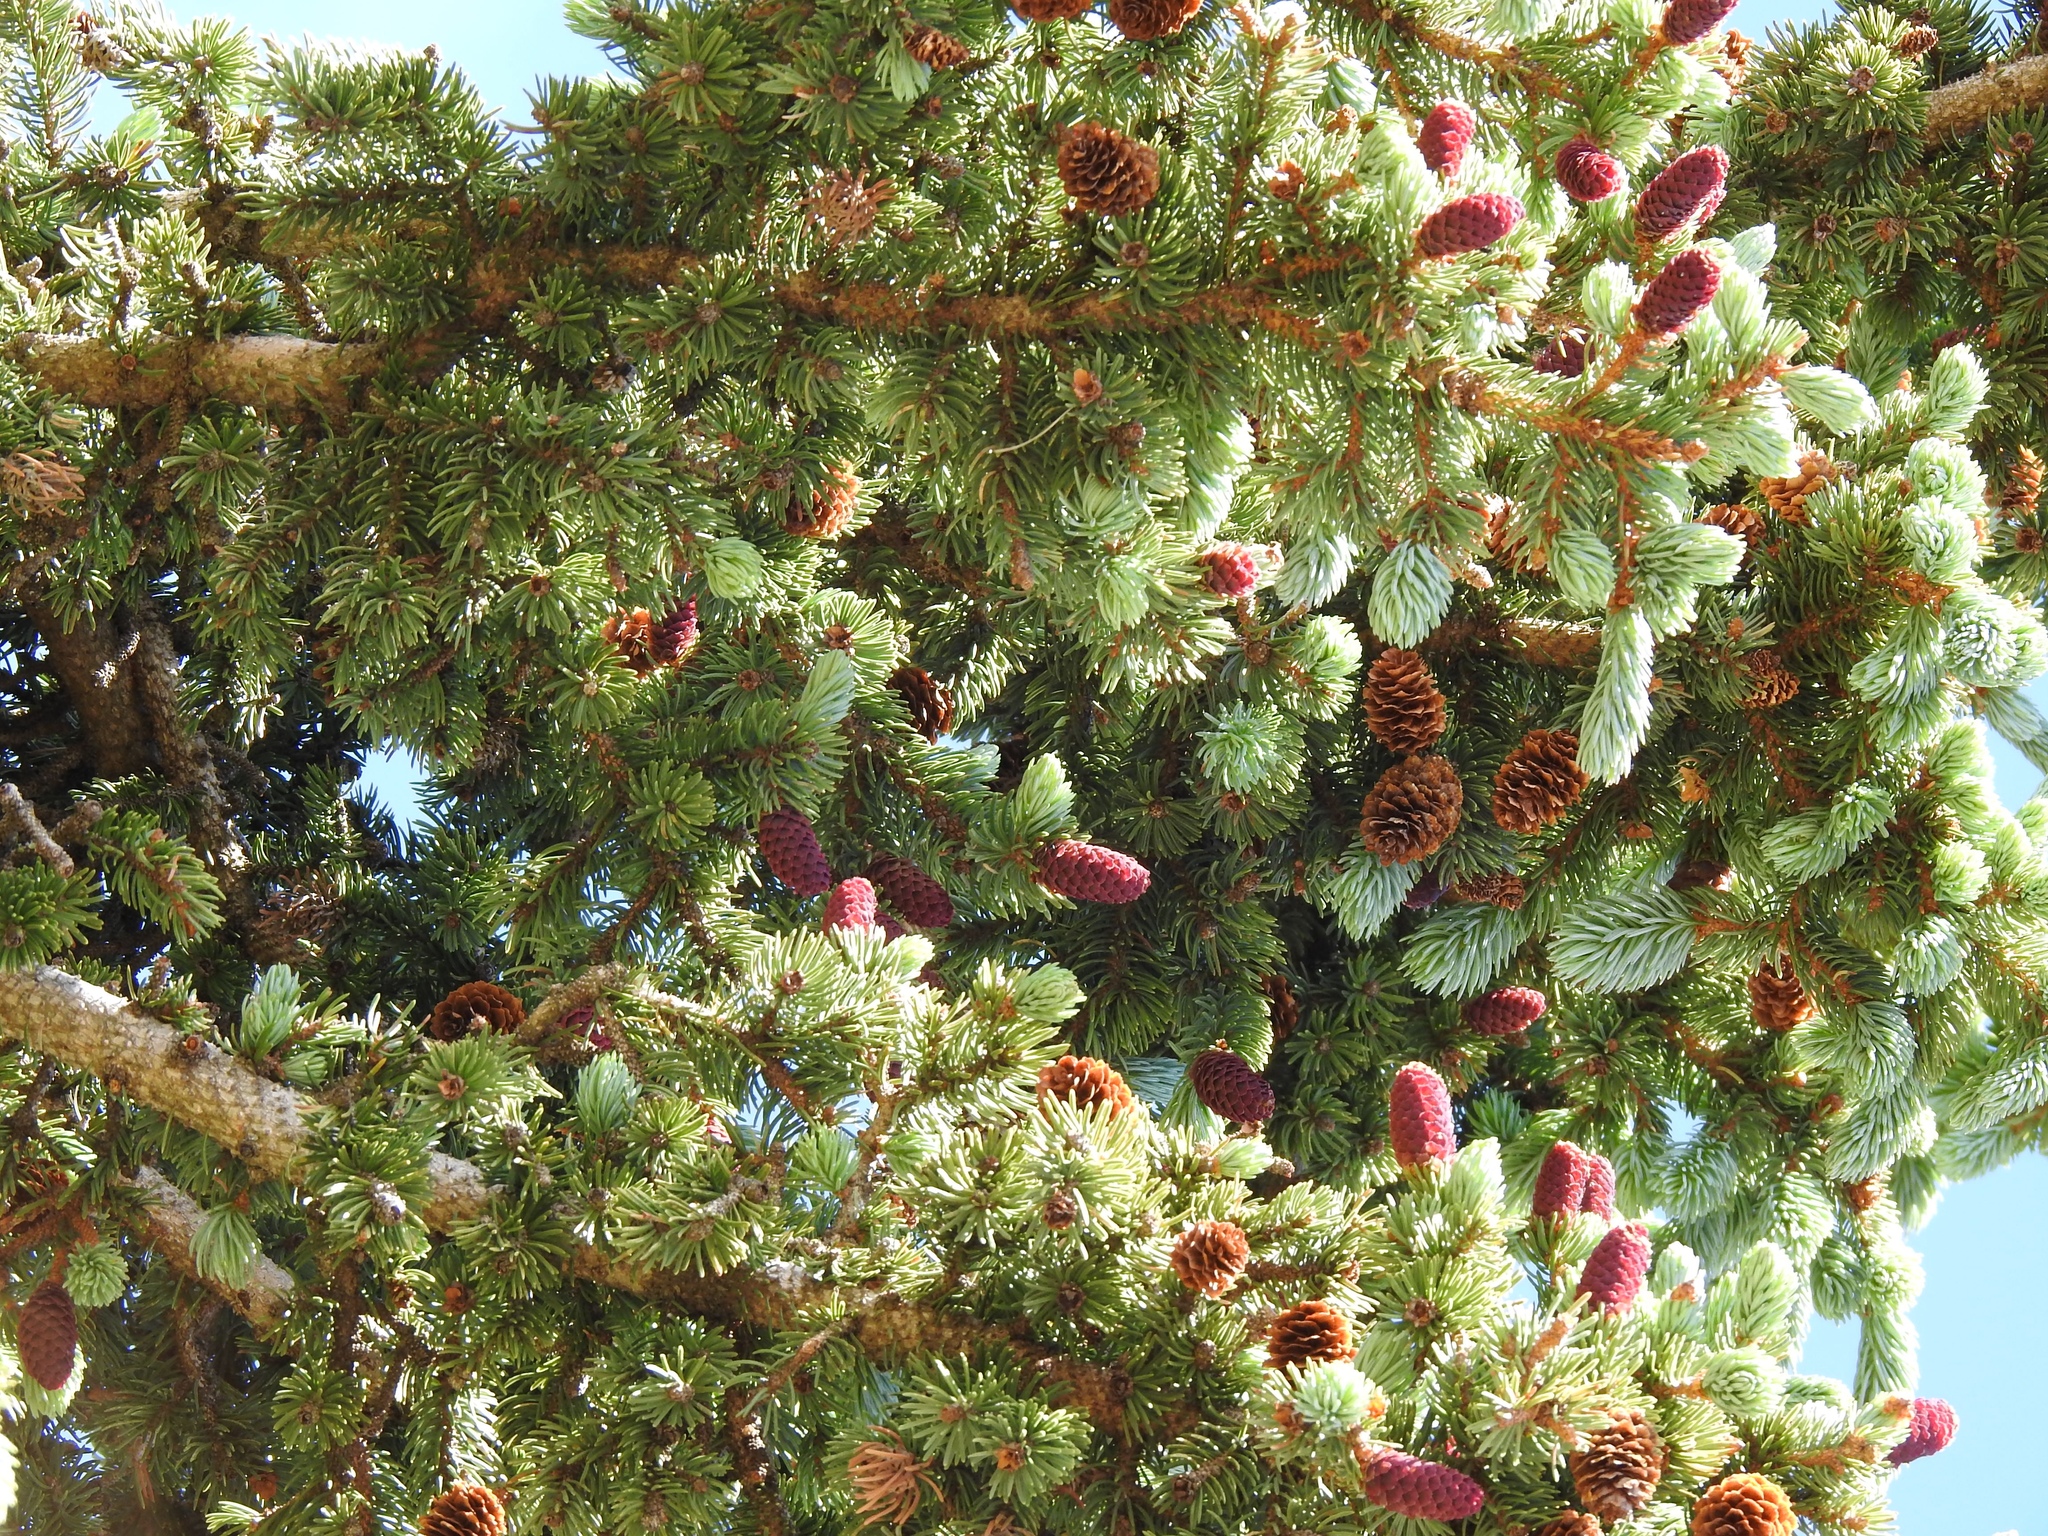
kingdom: Plantae
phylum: Tracheophyta
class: Pinopsida
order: Pinales
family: Pinaceae
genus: Picea
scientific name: Picea engelmannii
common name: Engelmann spruce
